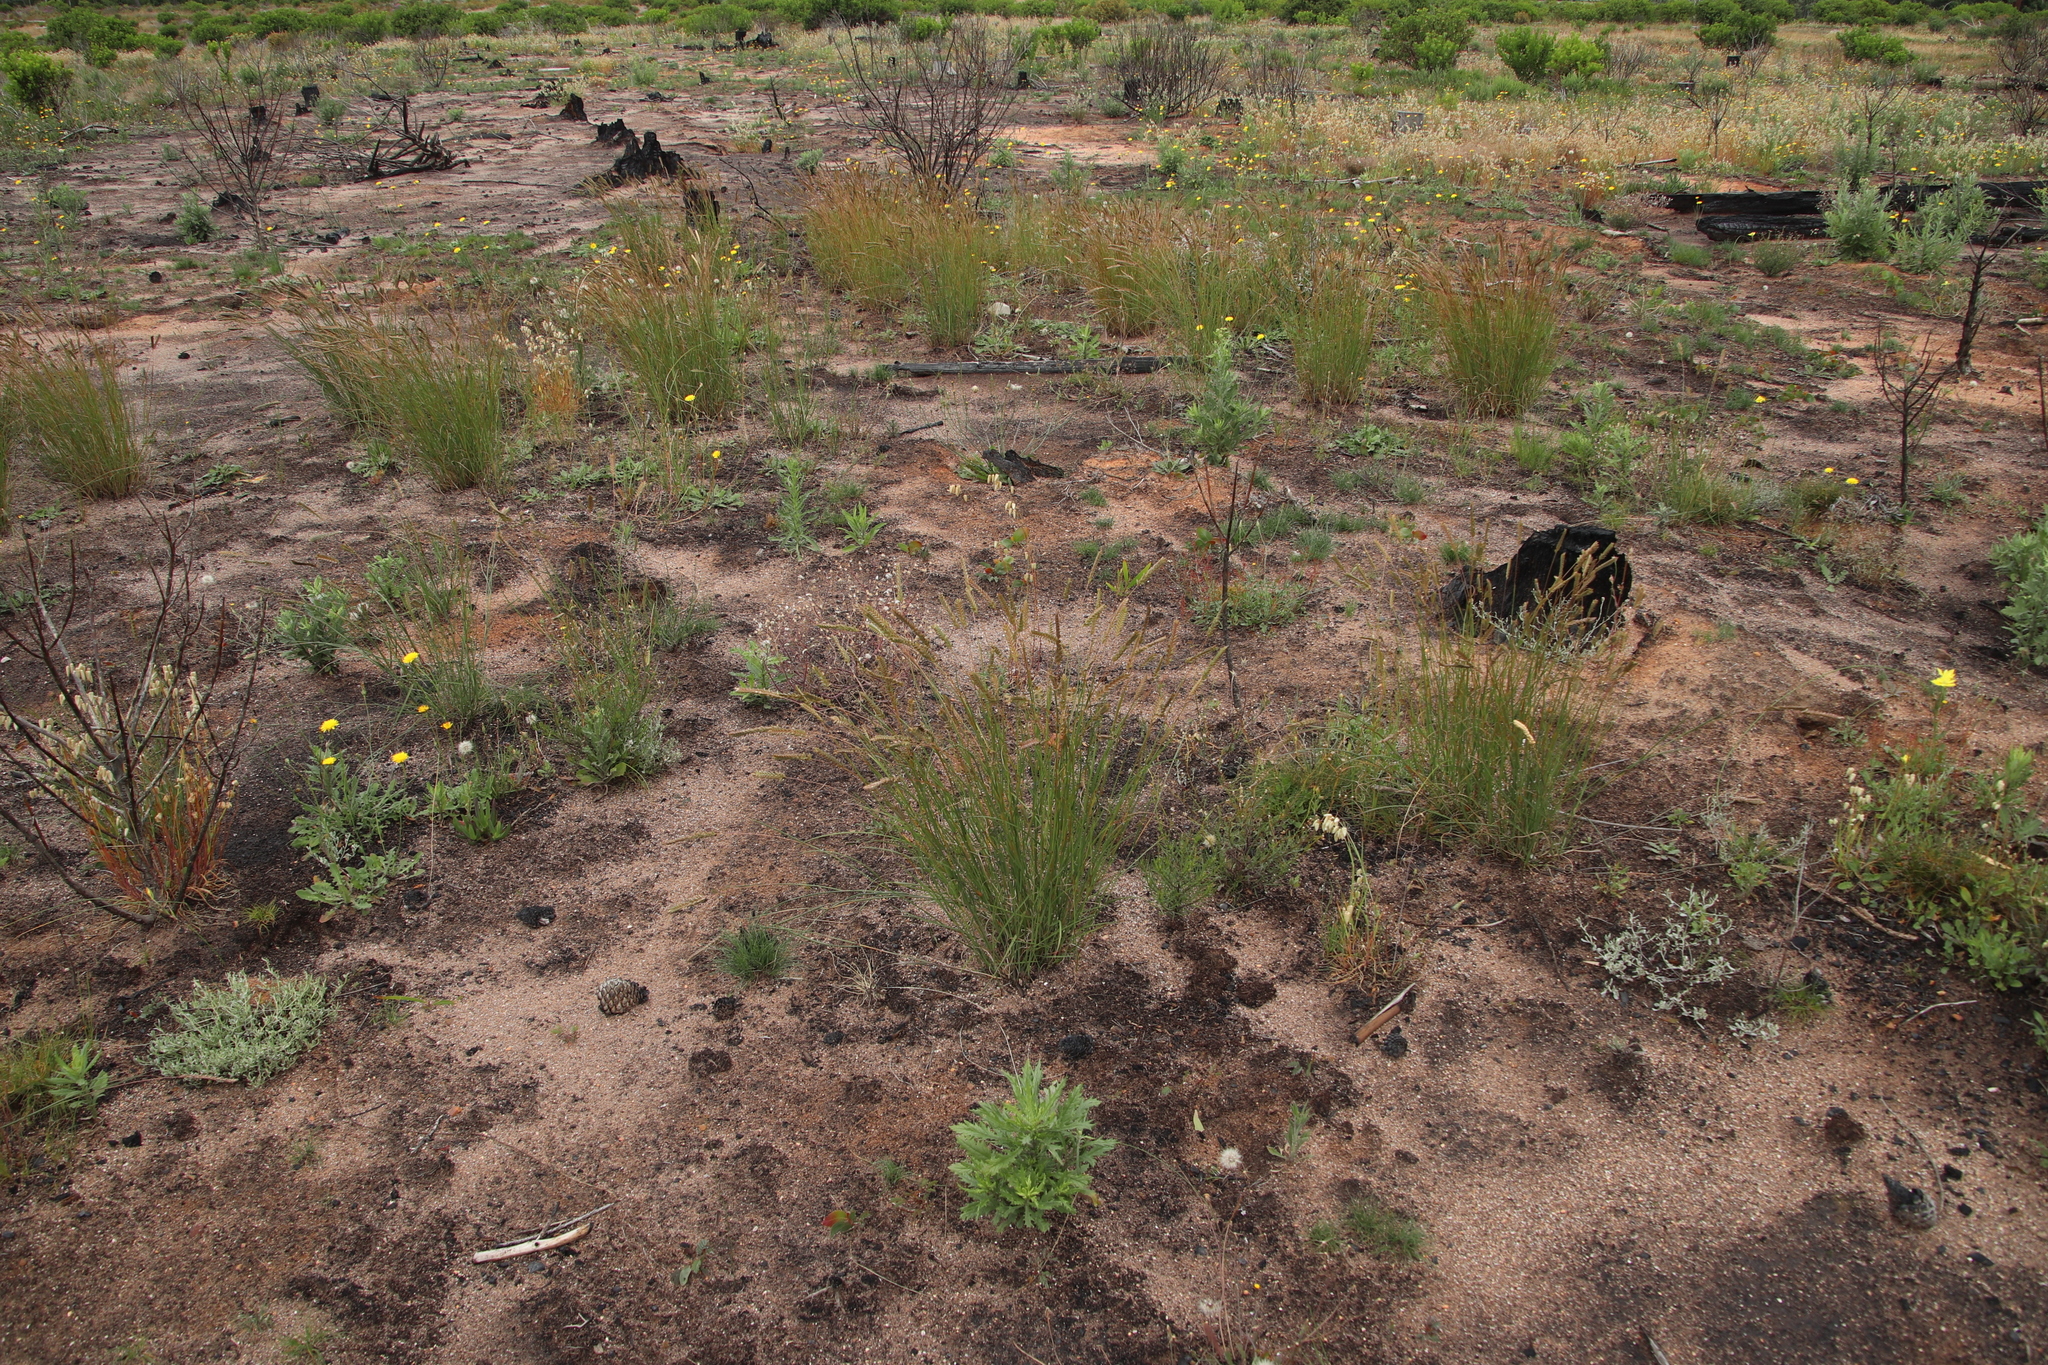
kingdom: Plantae
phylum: Tracheophyta
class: Liliopsida
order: Poales
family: Poaceae
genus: Tribolium
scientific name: Tribolium uniolae
